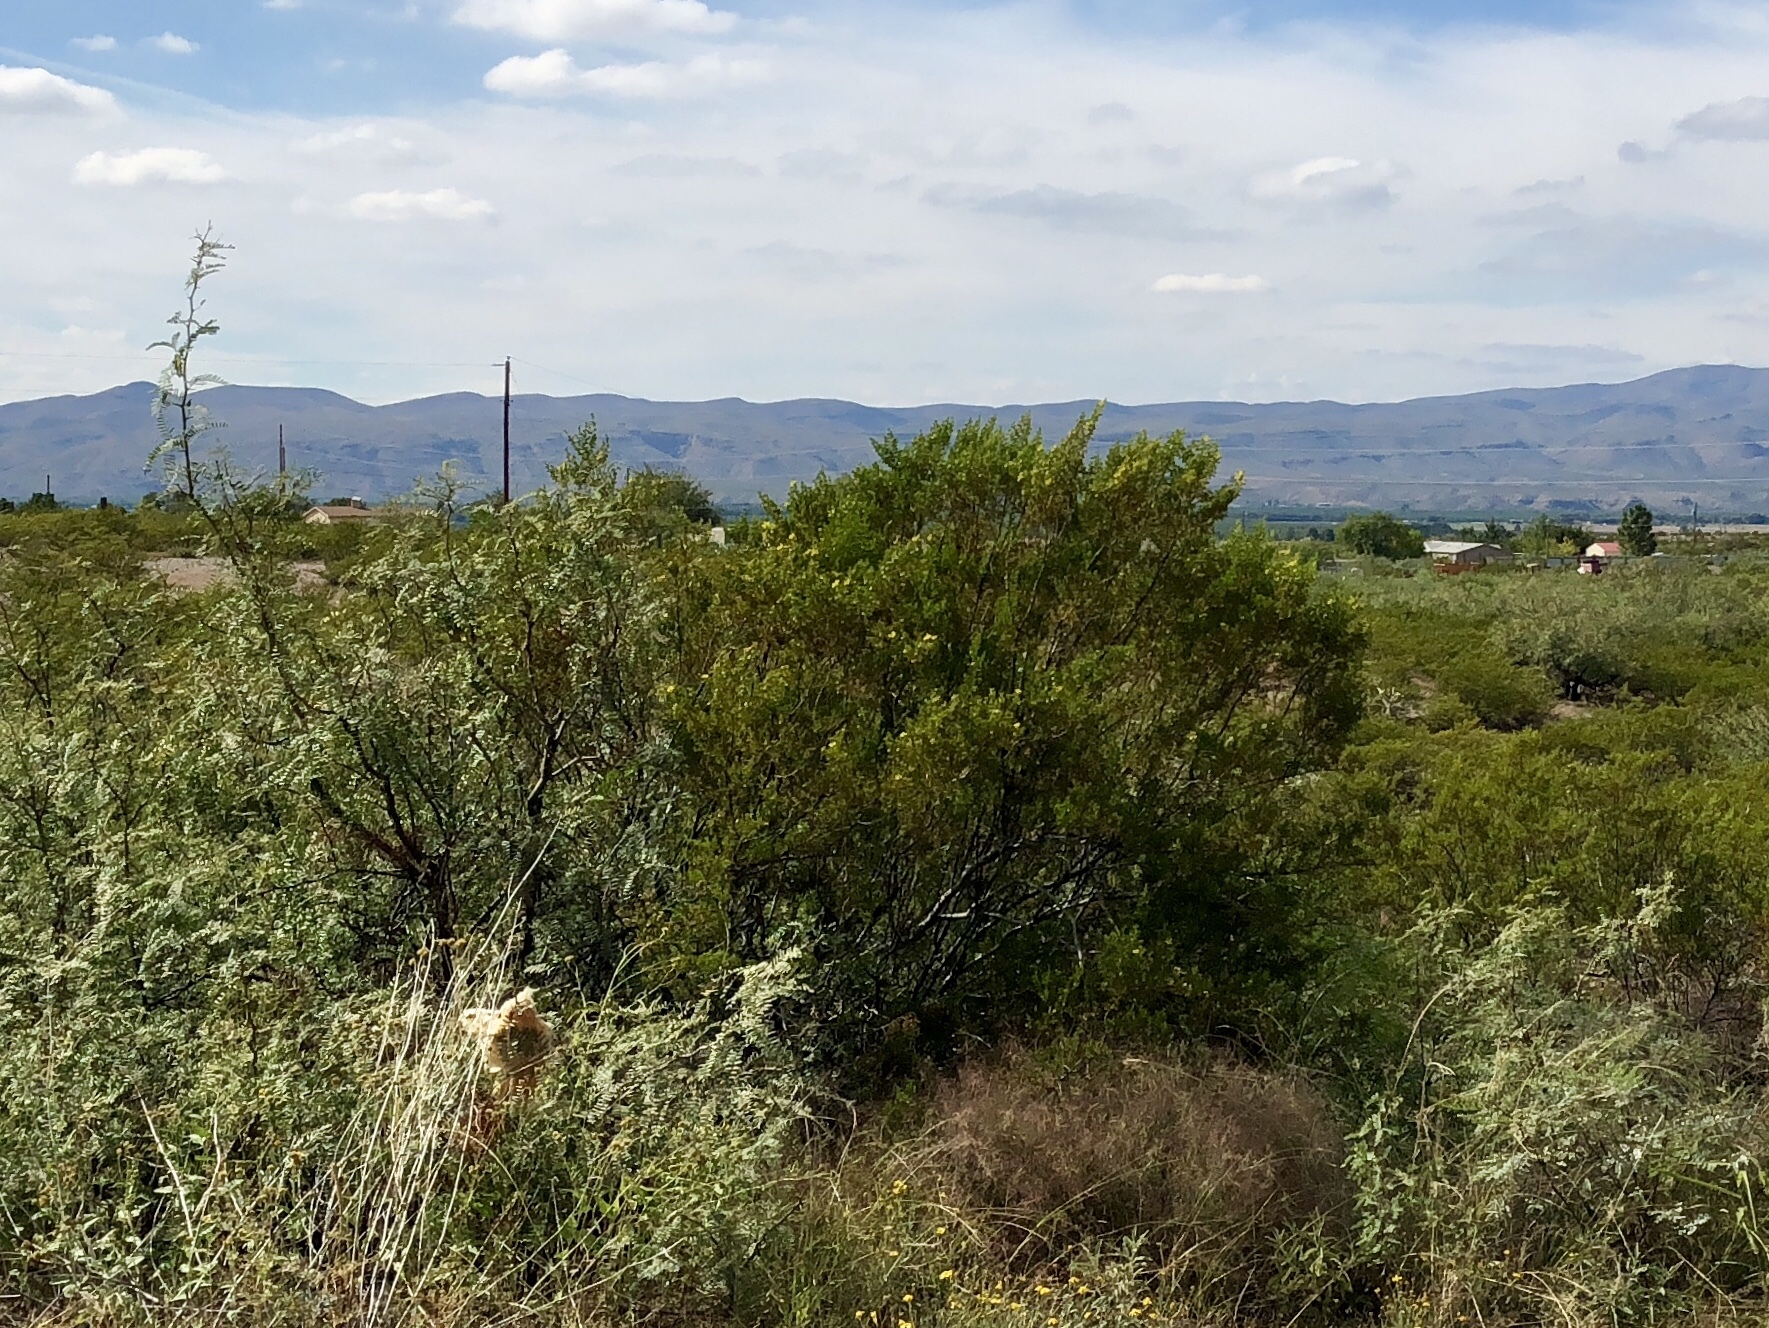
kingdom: Plantae
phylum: Tracheophyta
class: Magnoliopsida
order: Zygophyllales
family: Zygophyllaceae
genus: Larrea
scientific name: Larrea tridentata
